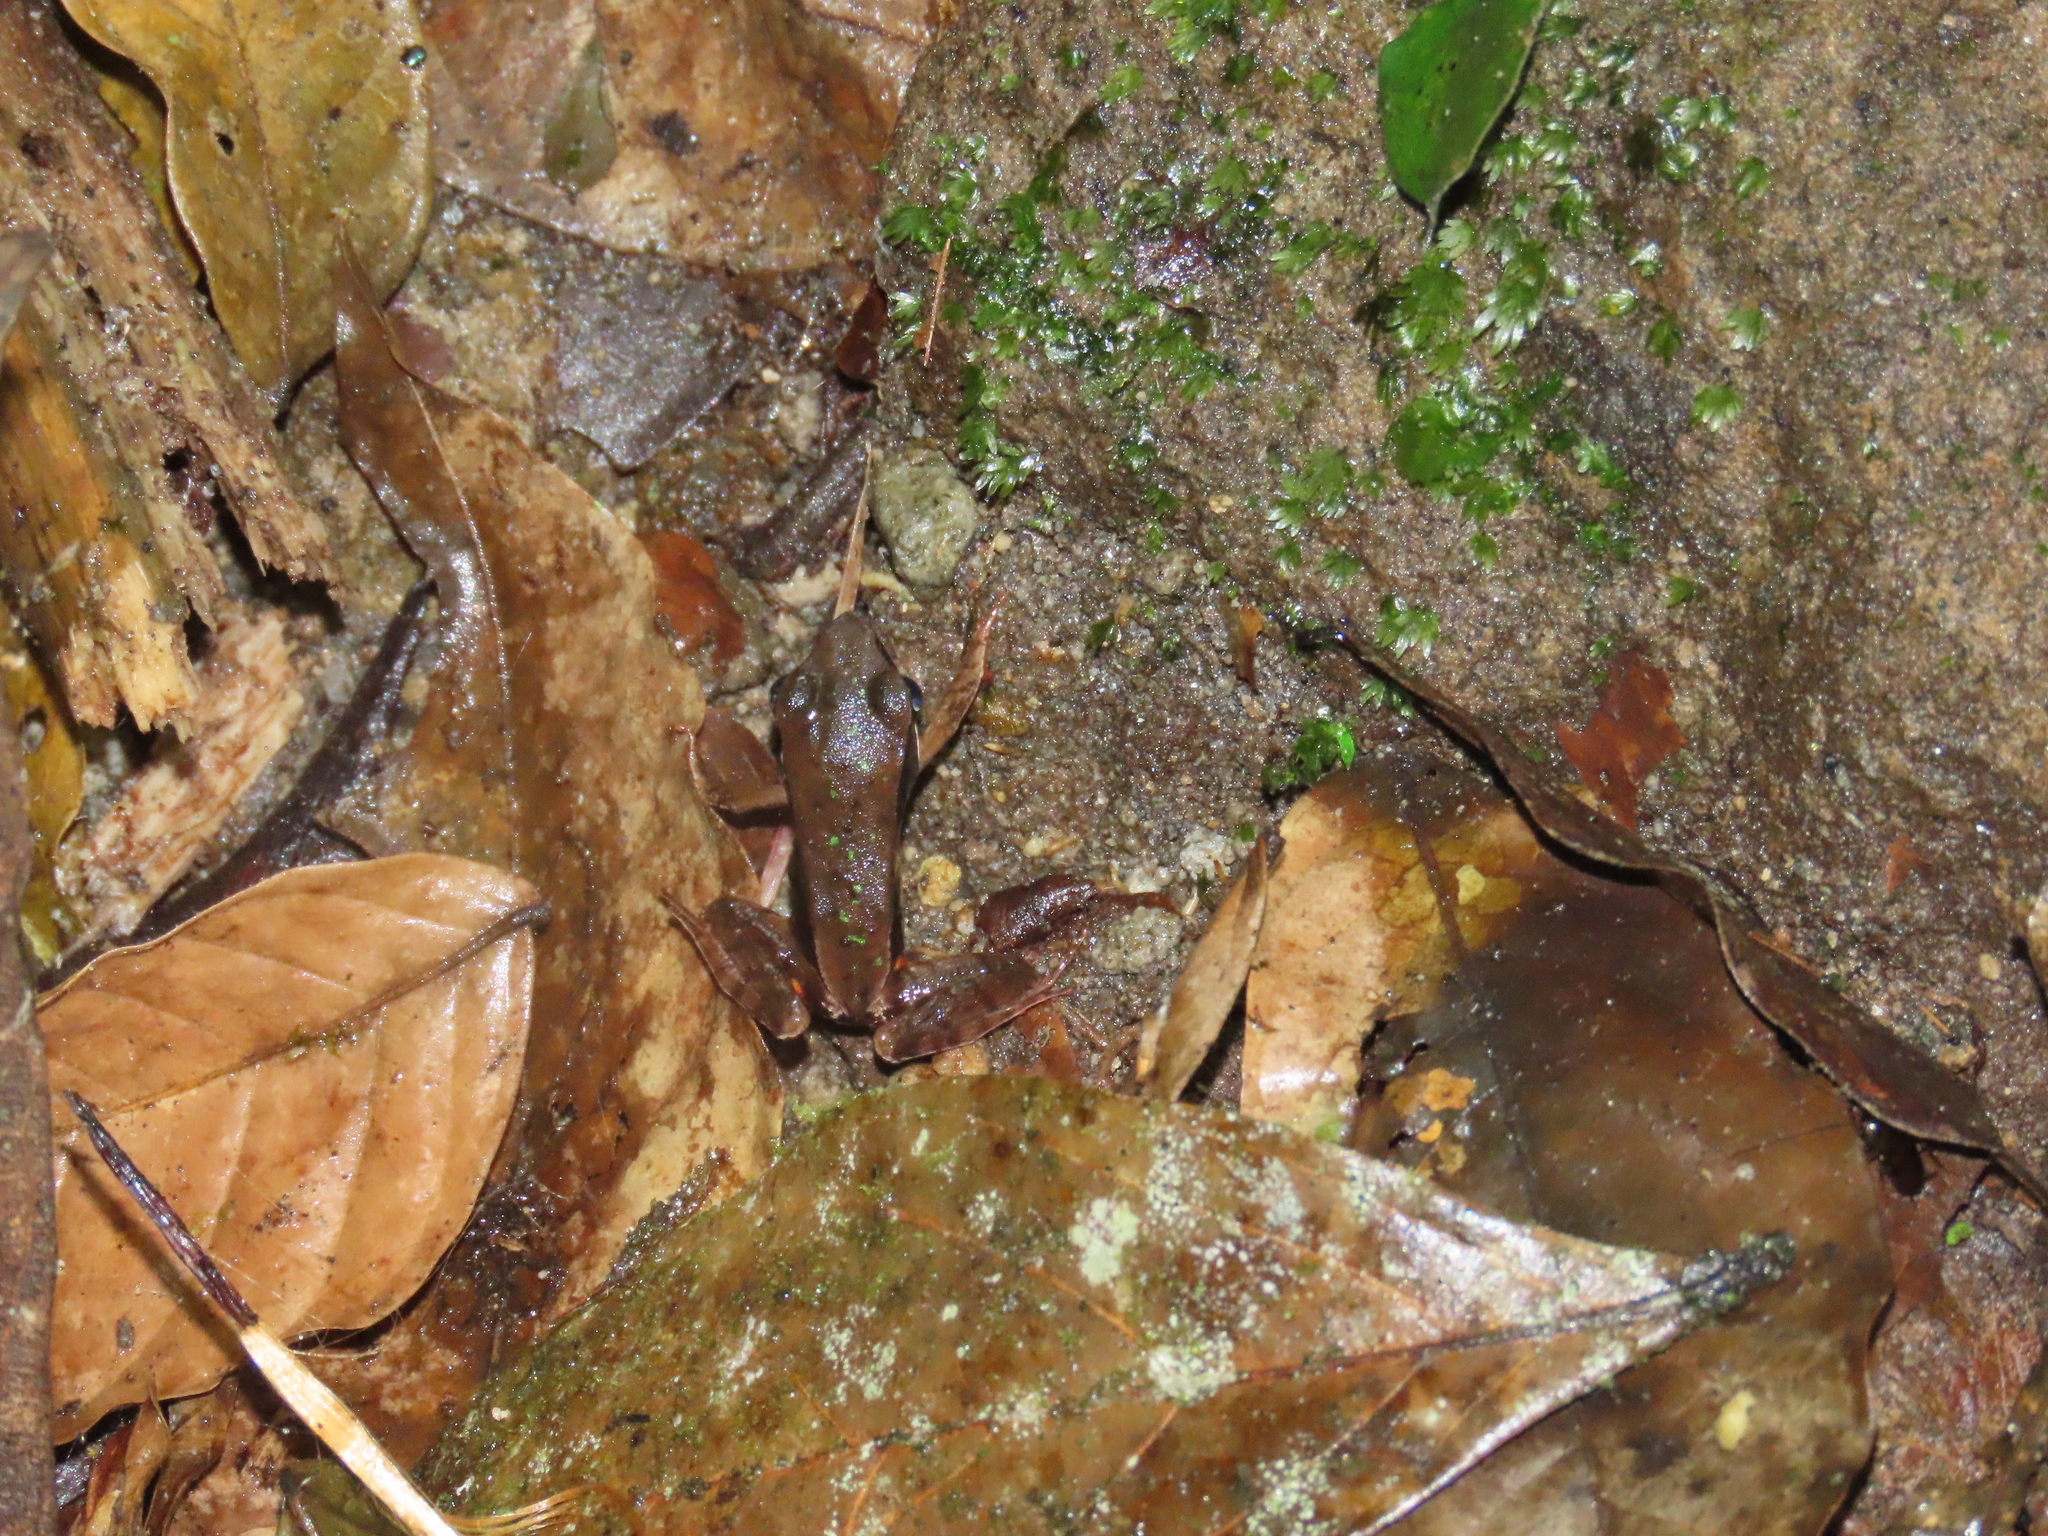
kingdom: Animalia
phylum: Chordata
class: Amphibia
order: Anura
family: Ranidae
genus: Lithobates
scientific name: Lithobates warszewitschii
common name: Warszewitsch's frog
